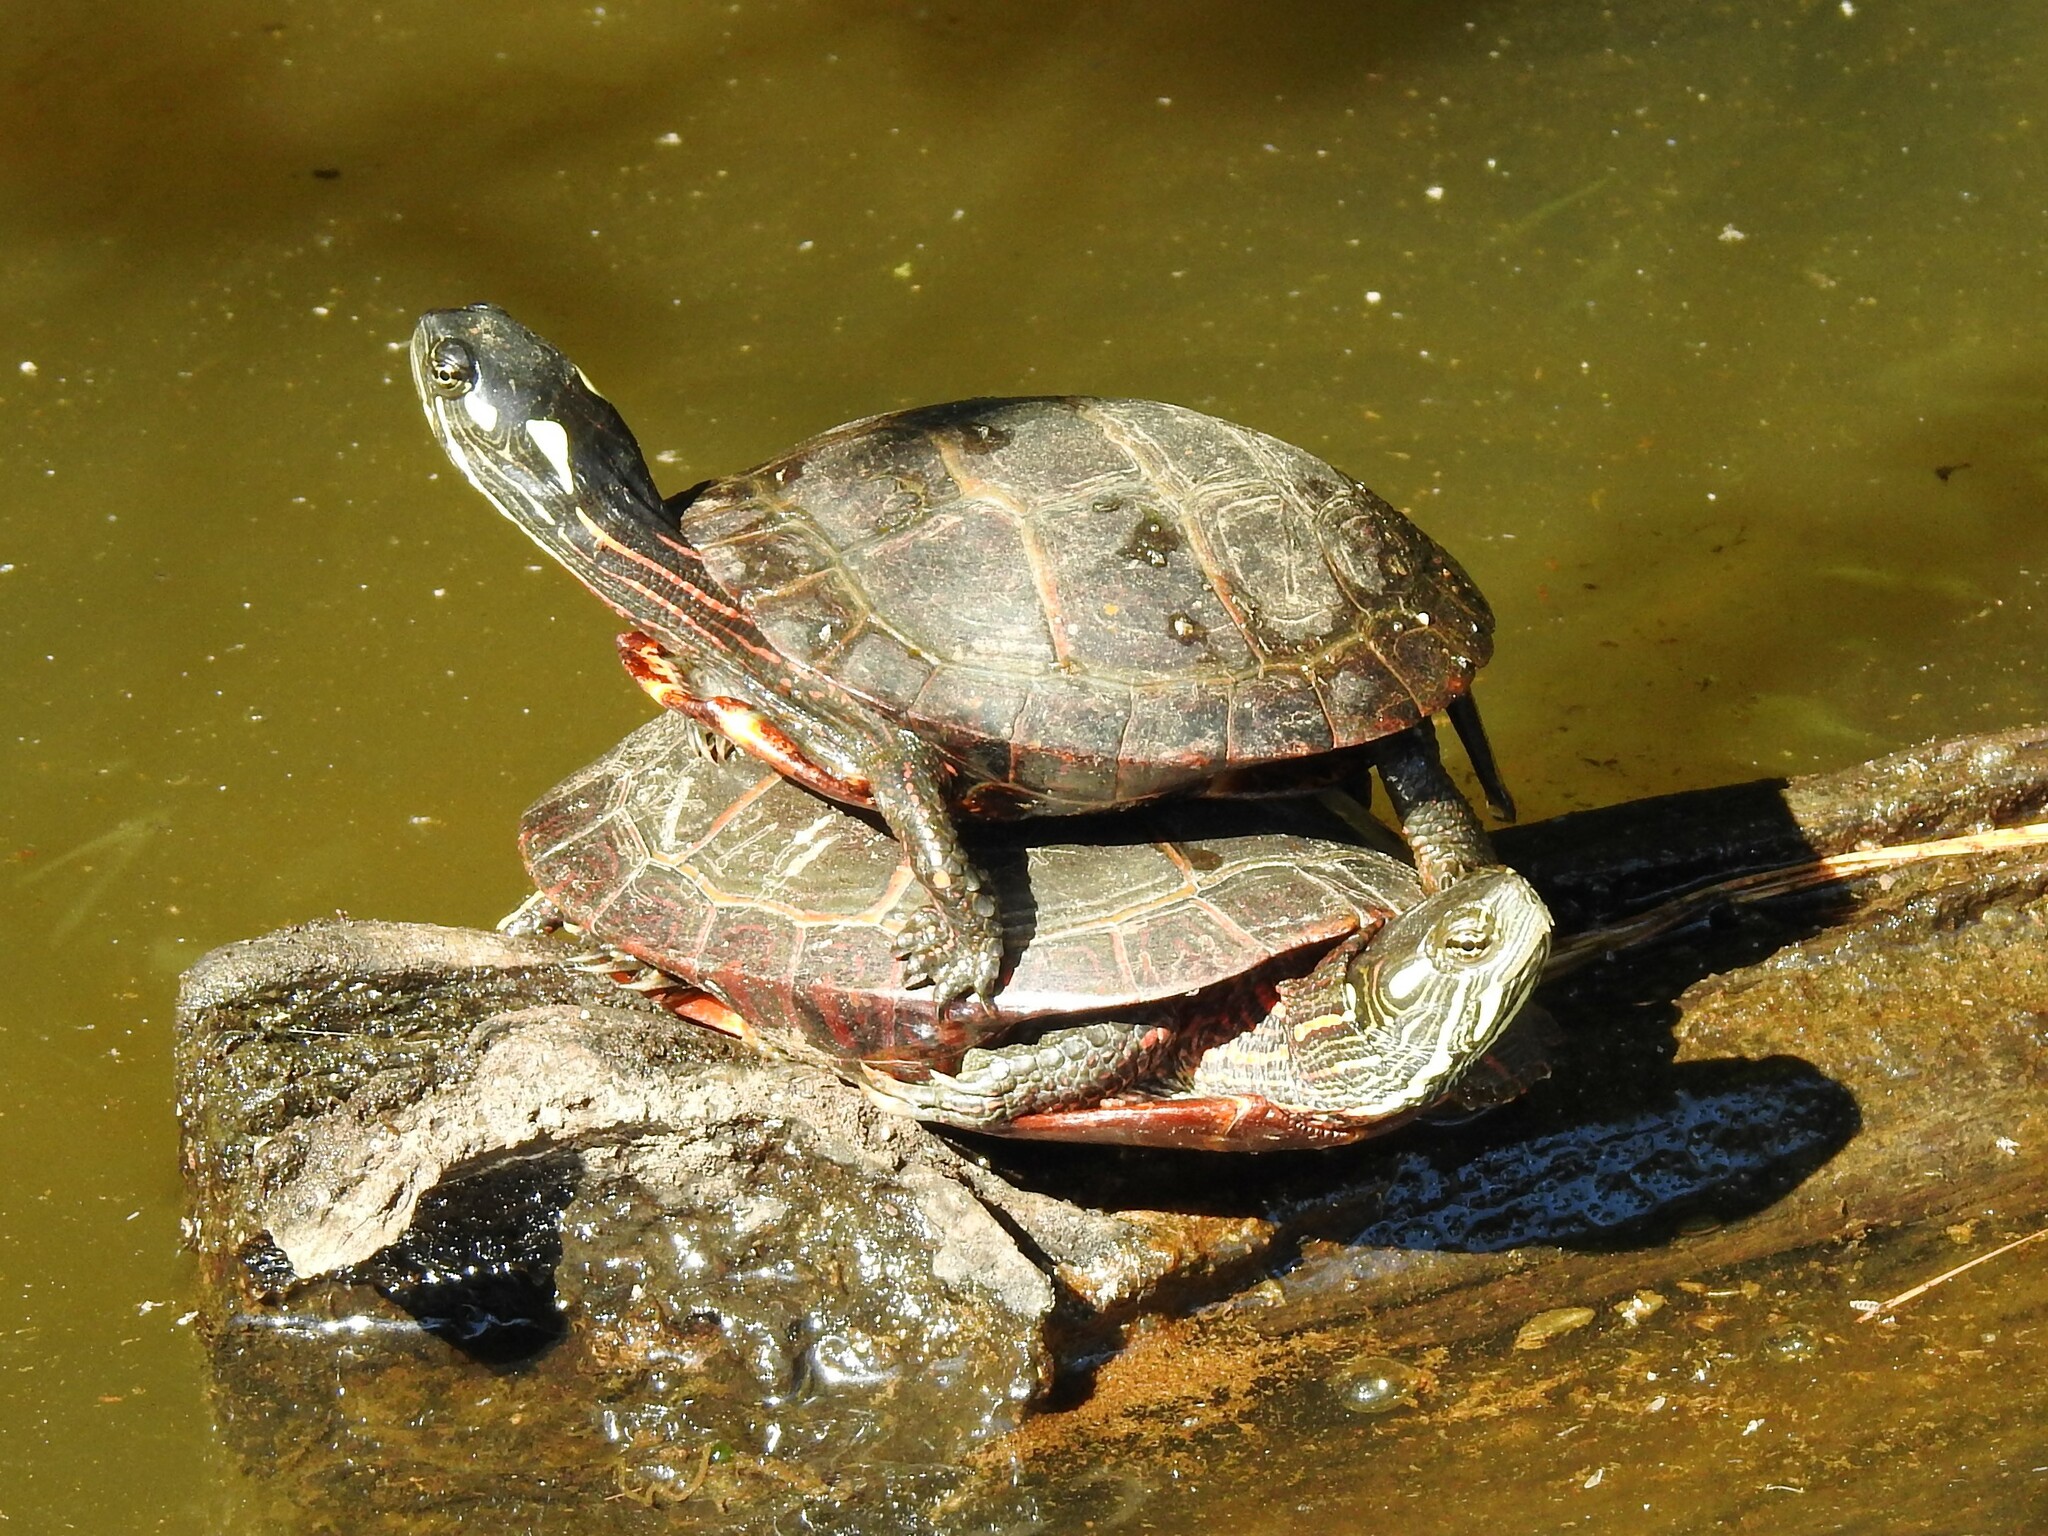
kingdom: Animalia
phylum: Chordata
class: Testudines
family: Emydidae
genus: Chrysemys
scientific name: Chrysemys picta
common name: Painted turtle
